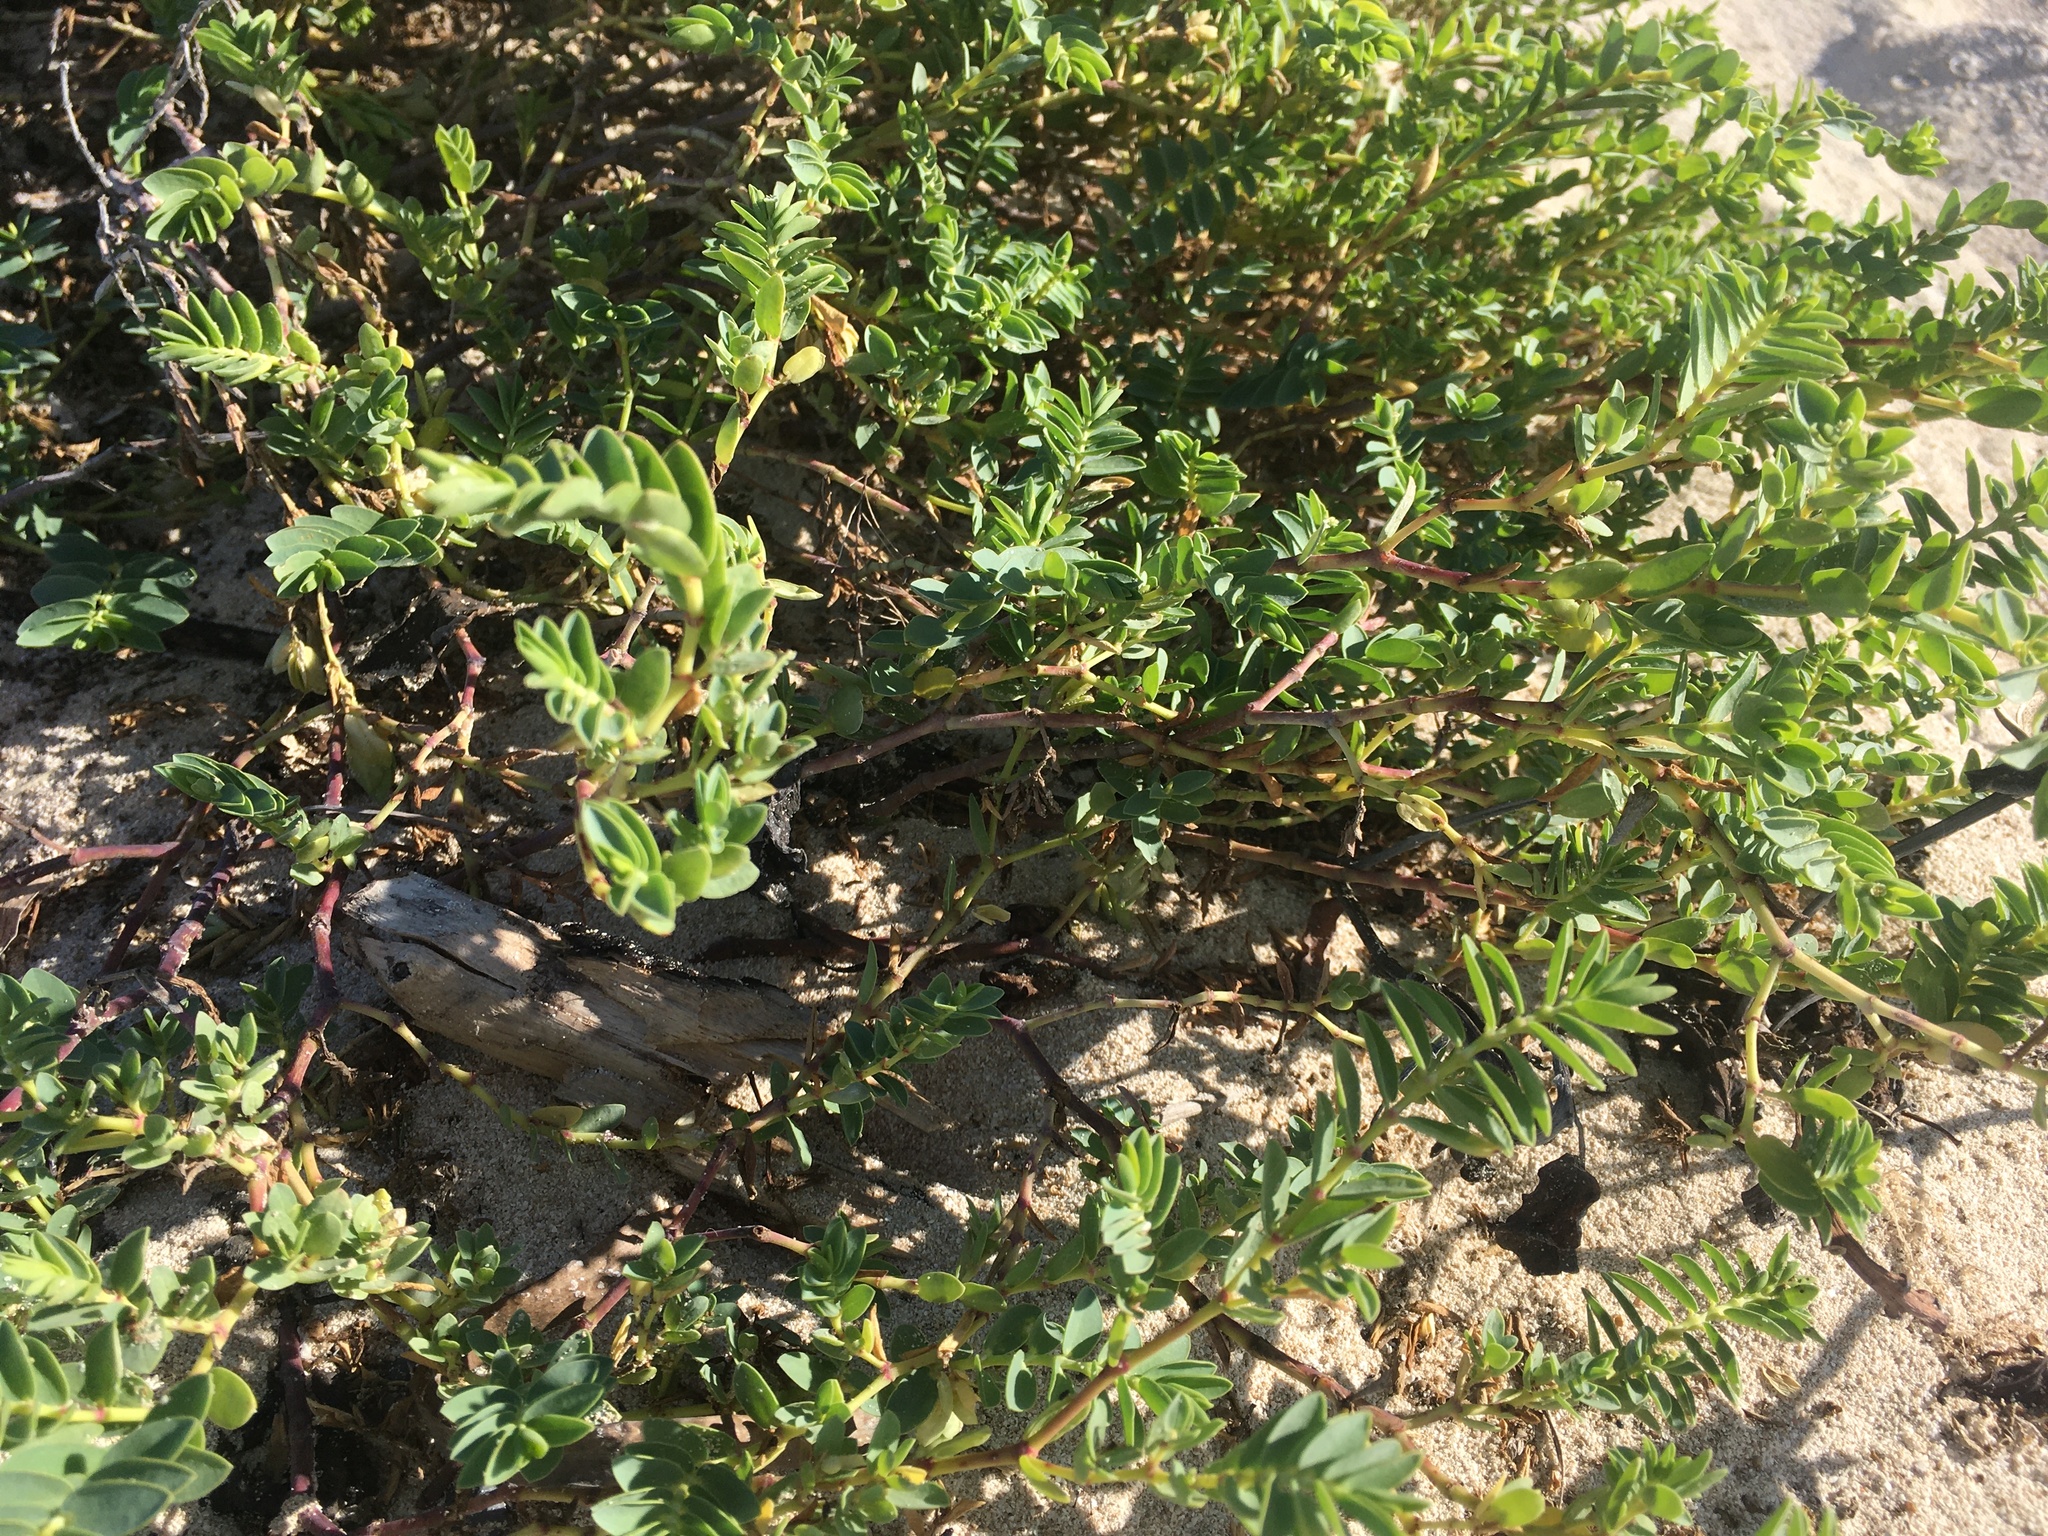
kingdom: Plantae
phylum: Tracheophyta
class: Magnoliopsida
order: Malpighiales
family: Euphorbiaceae
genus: Euphorbia
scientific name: Euphorbia mesembryanthemifolia
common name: Coastal beach sandmat
